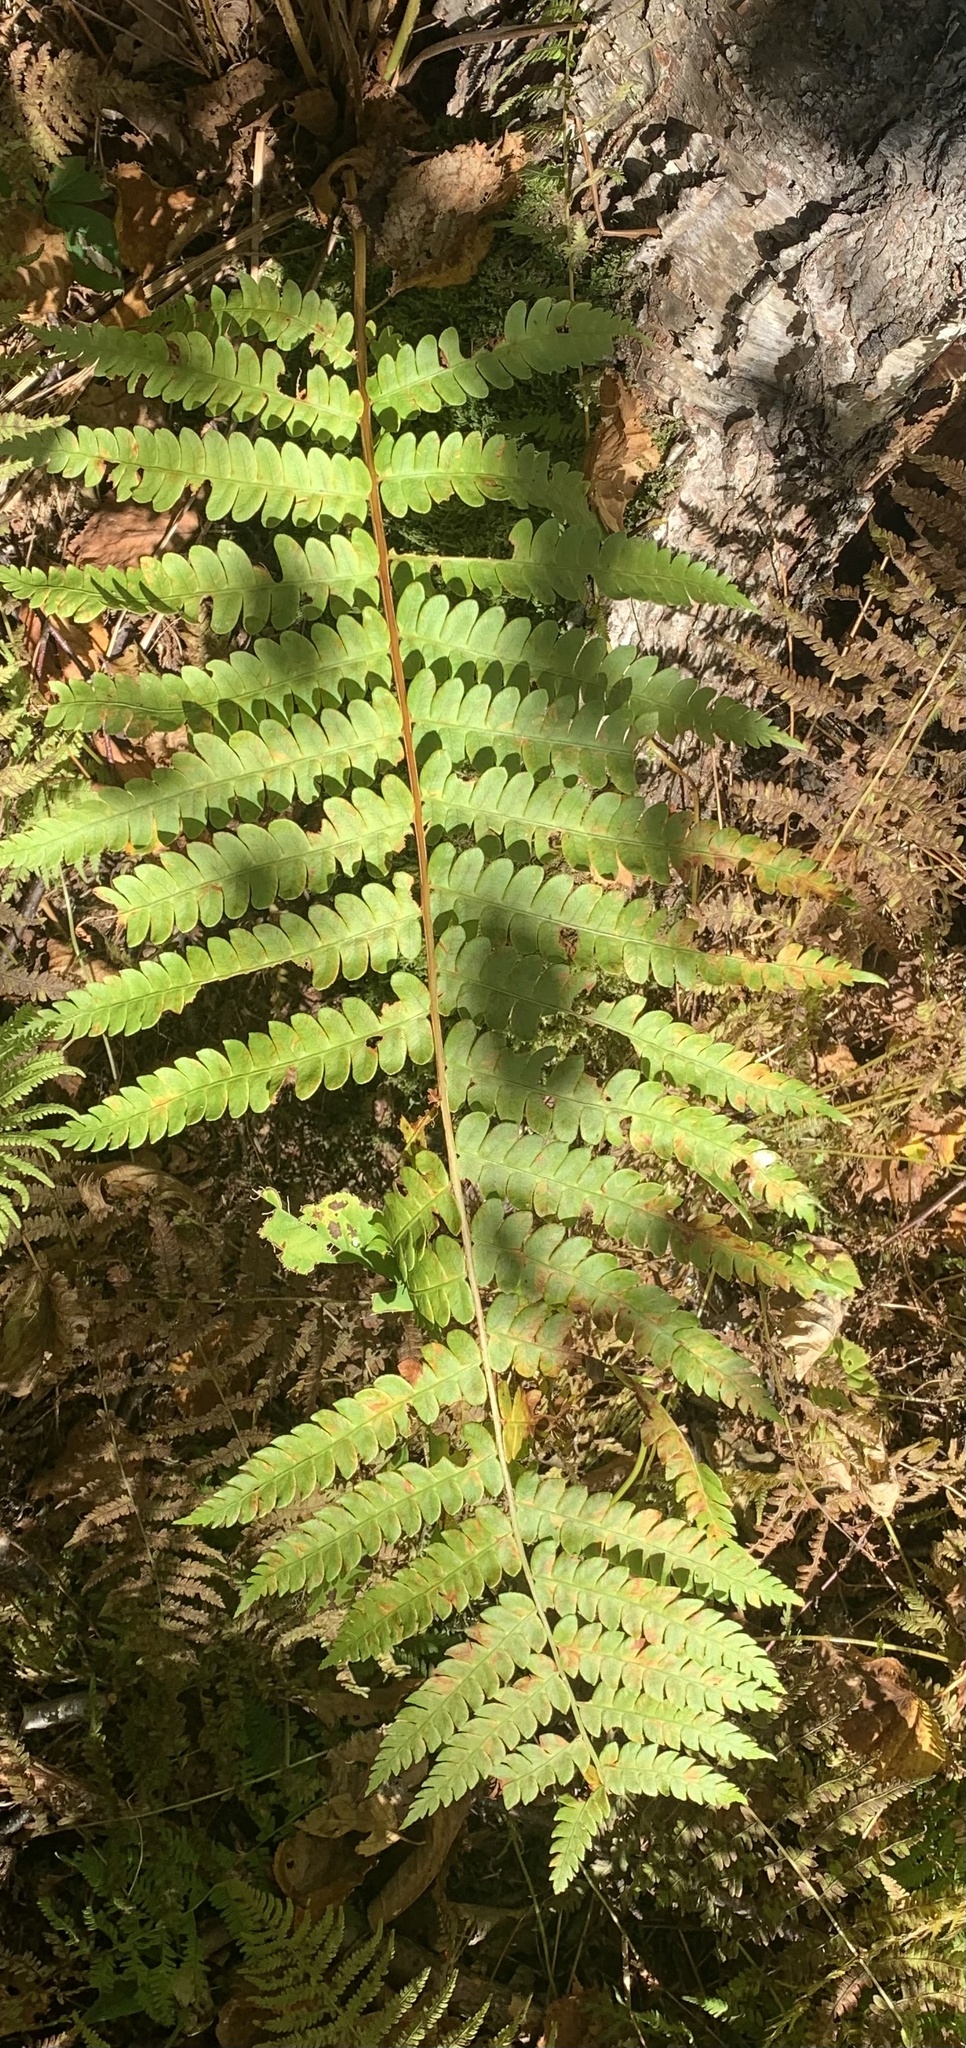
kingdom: Plantae
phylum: Tracheophyta
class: Polypodiopsida
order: Osmundales
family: Osmundaceae
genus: Osmundastrum
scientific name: Osmundastrum cinnamomeum
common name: Cinnamon fern
